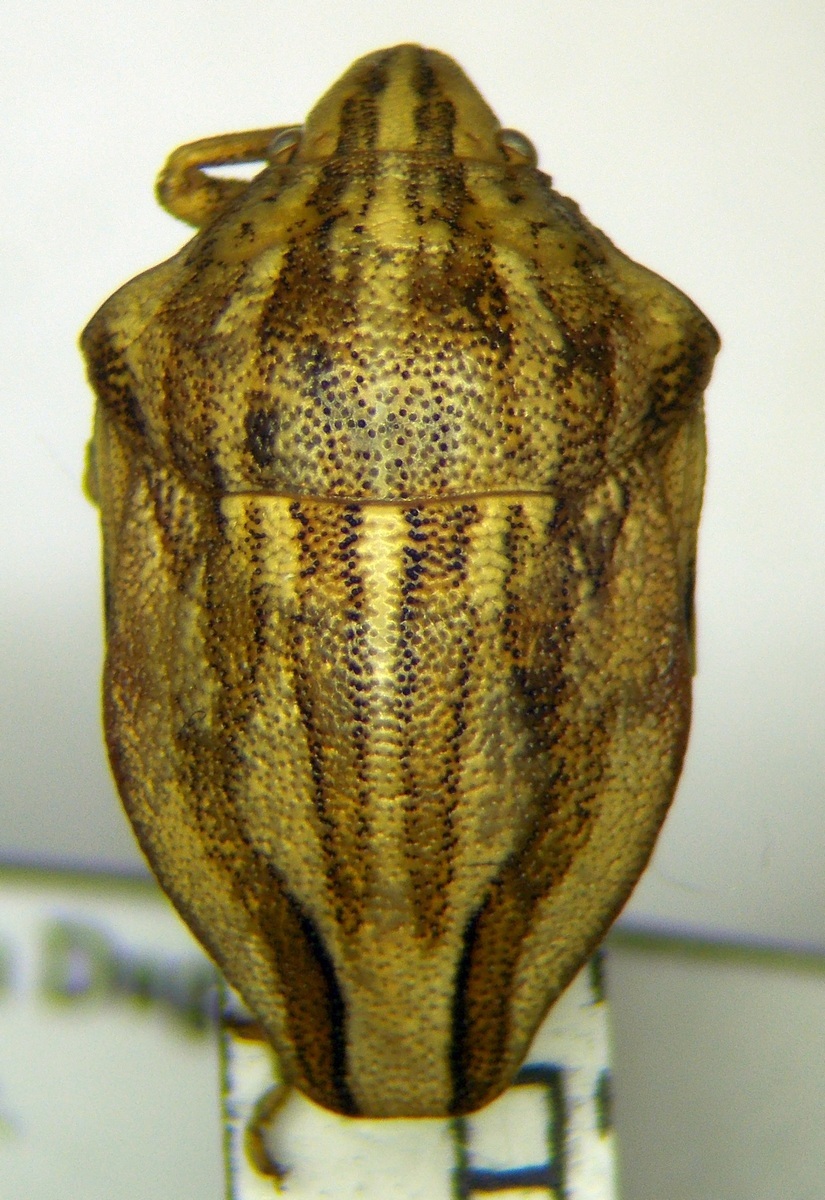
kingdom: Animalia
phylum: Arthropoda
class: Insecta
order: Hemiptera
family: Scutelleridae
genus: Odontotarsus
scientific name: Odontotarsus purpureolineatus
